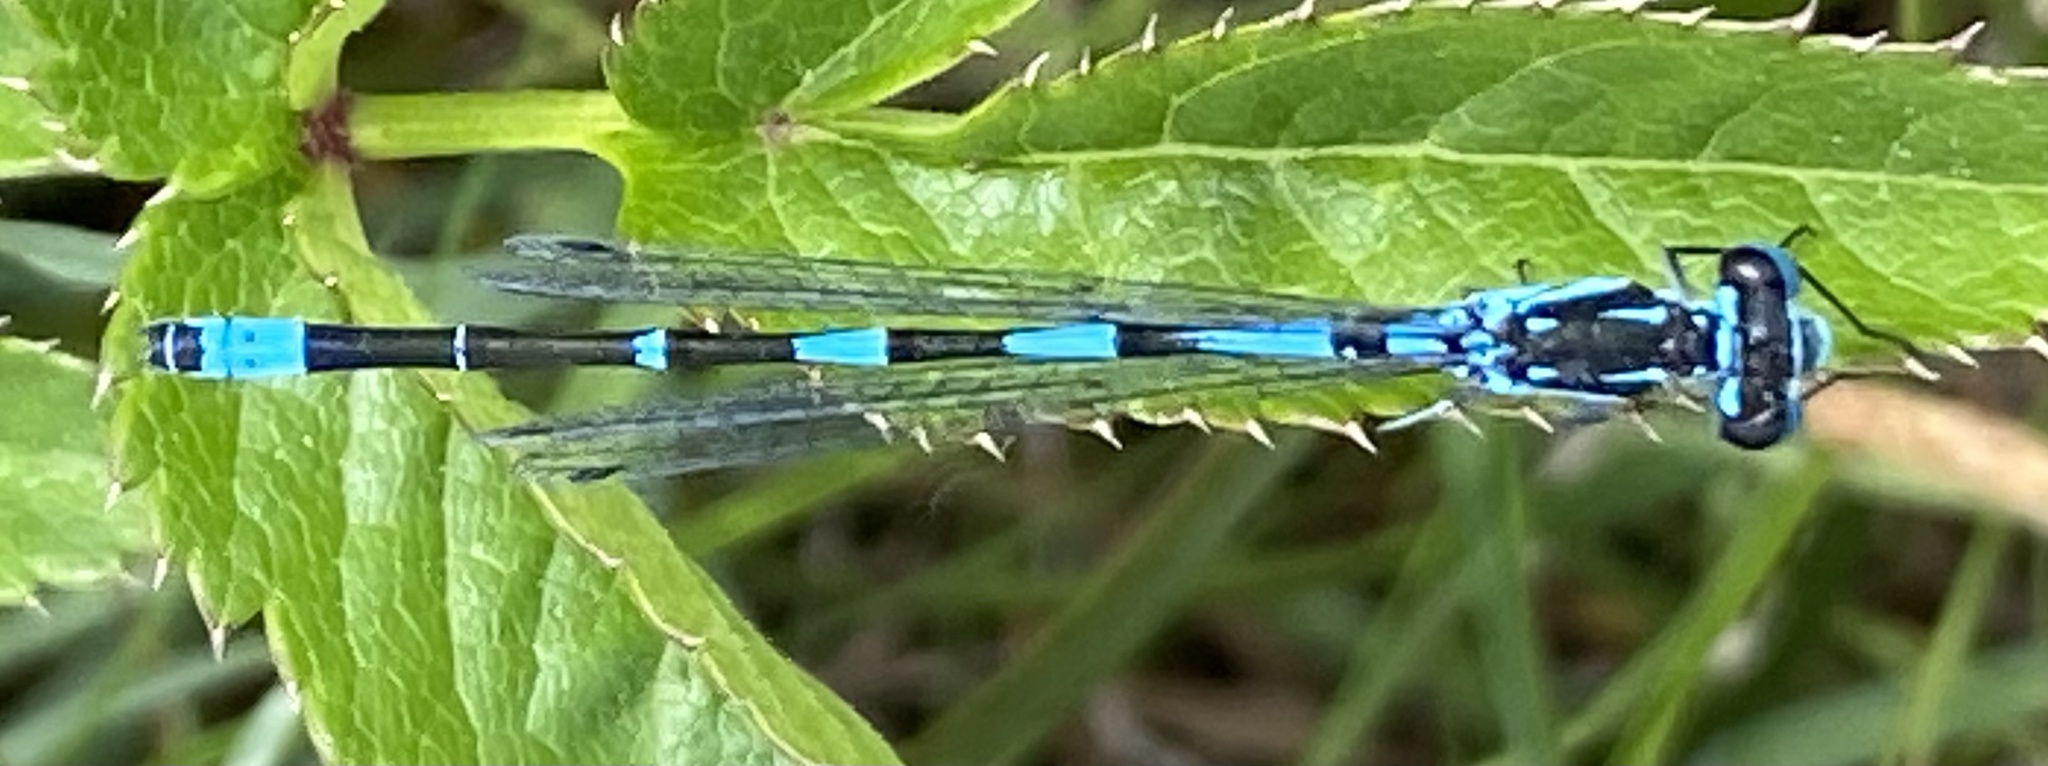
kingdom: Animalia
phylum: Arthropoda
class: Insecta
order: Odonata
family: Coenagrionidae
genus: Coenagrion
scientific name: Coenagrion pulchellum
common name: Variable bluet
